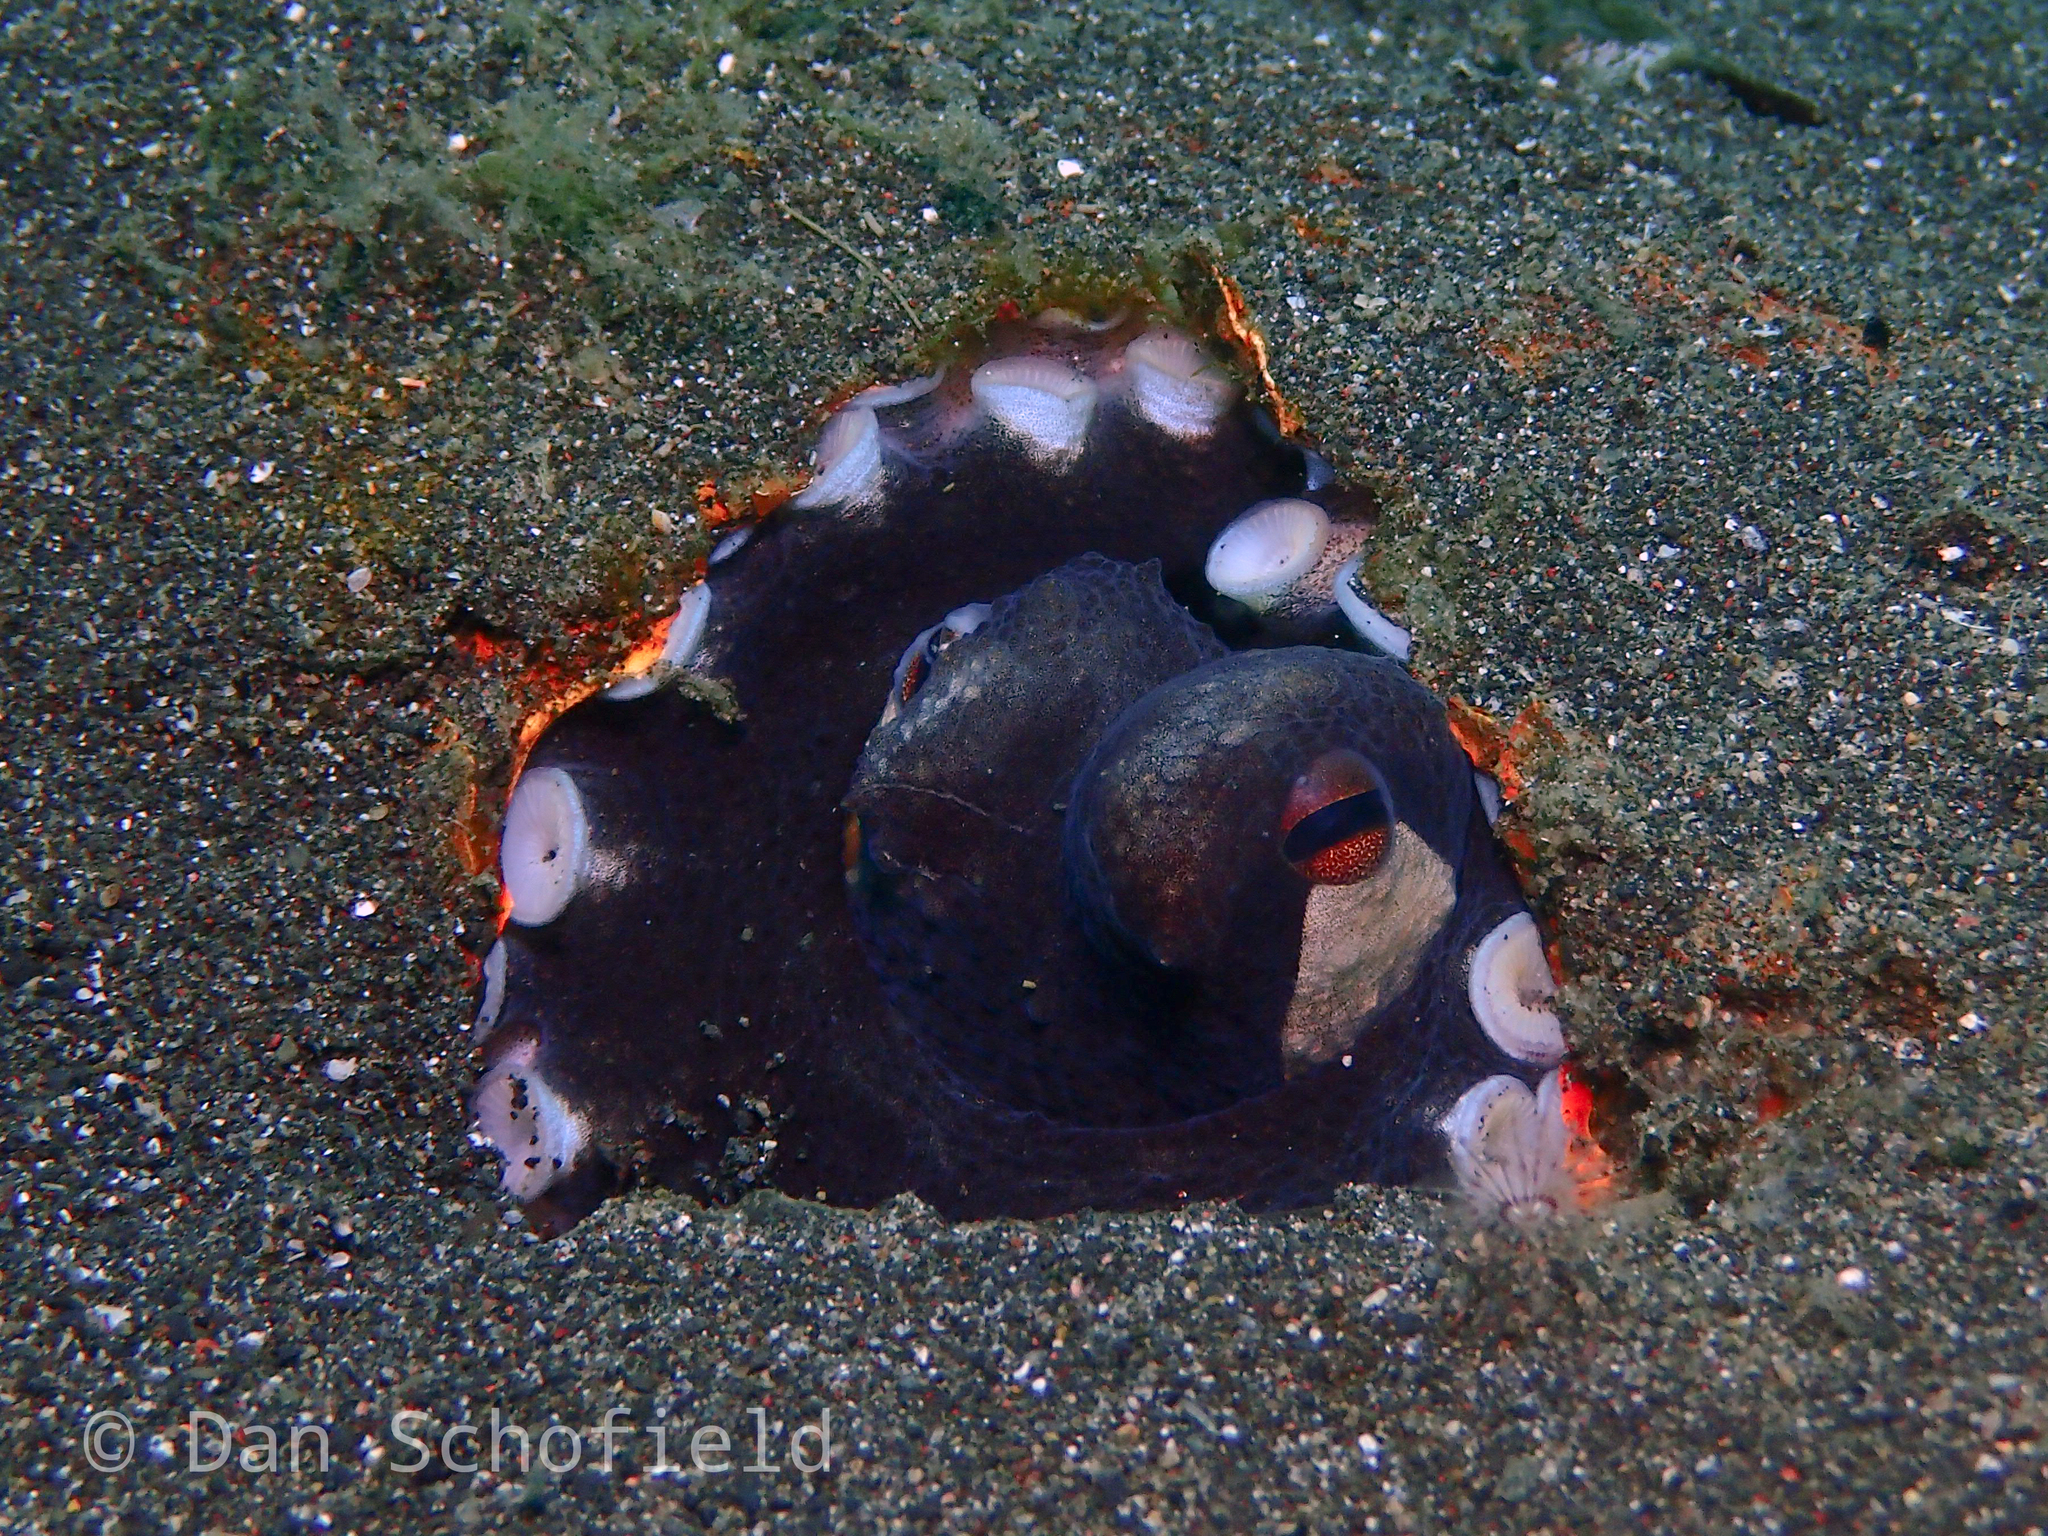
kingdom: Animalia
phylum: Mollusca
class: Cephalopoda
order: Octopoda
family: Octopodidae
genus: Amphioctopus
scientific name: Amphioctopus marginatus
